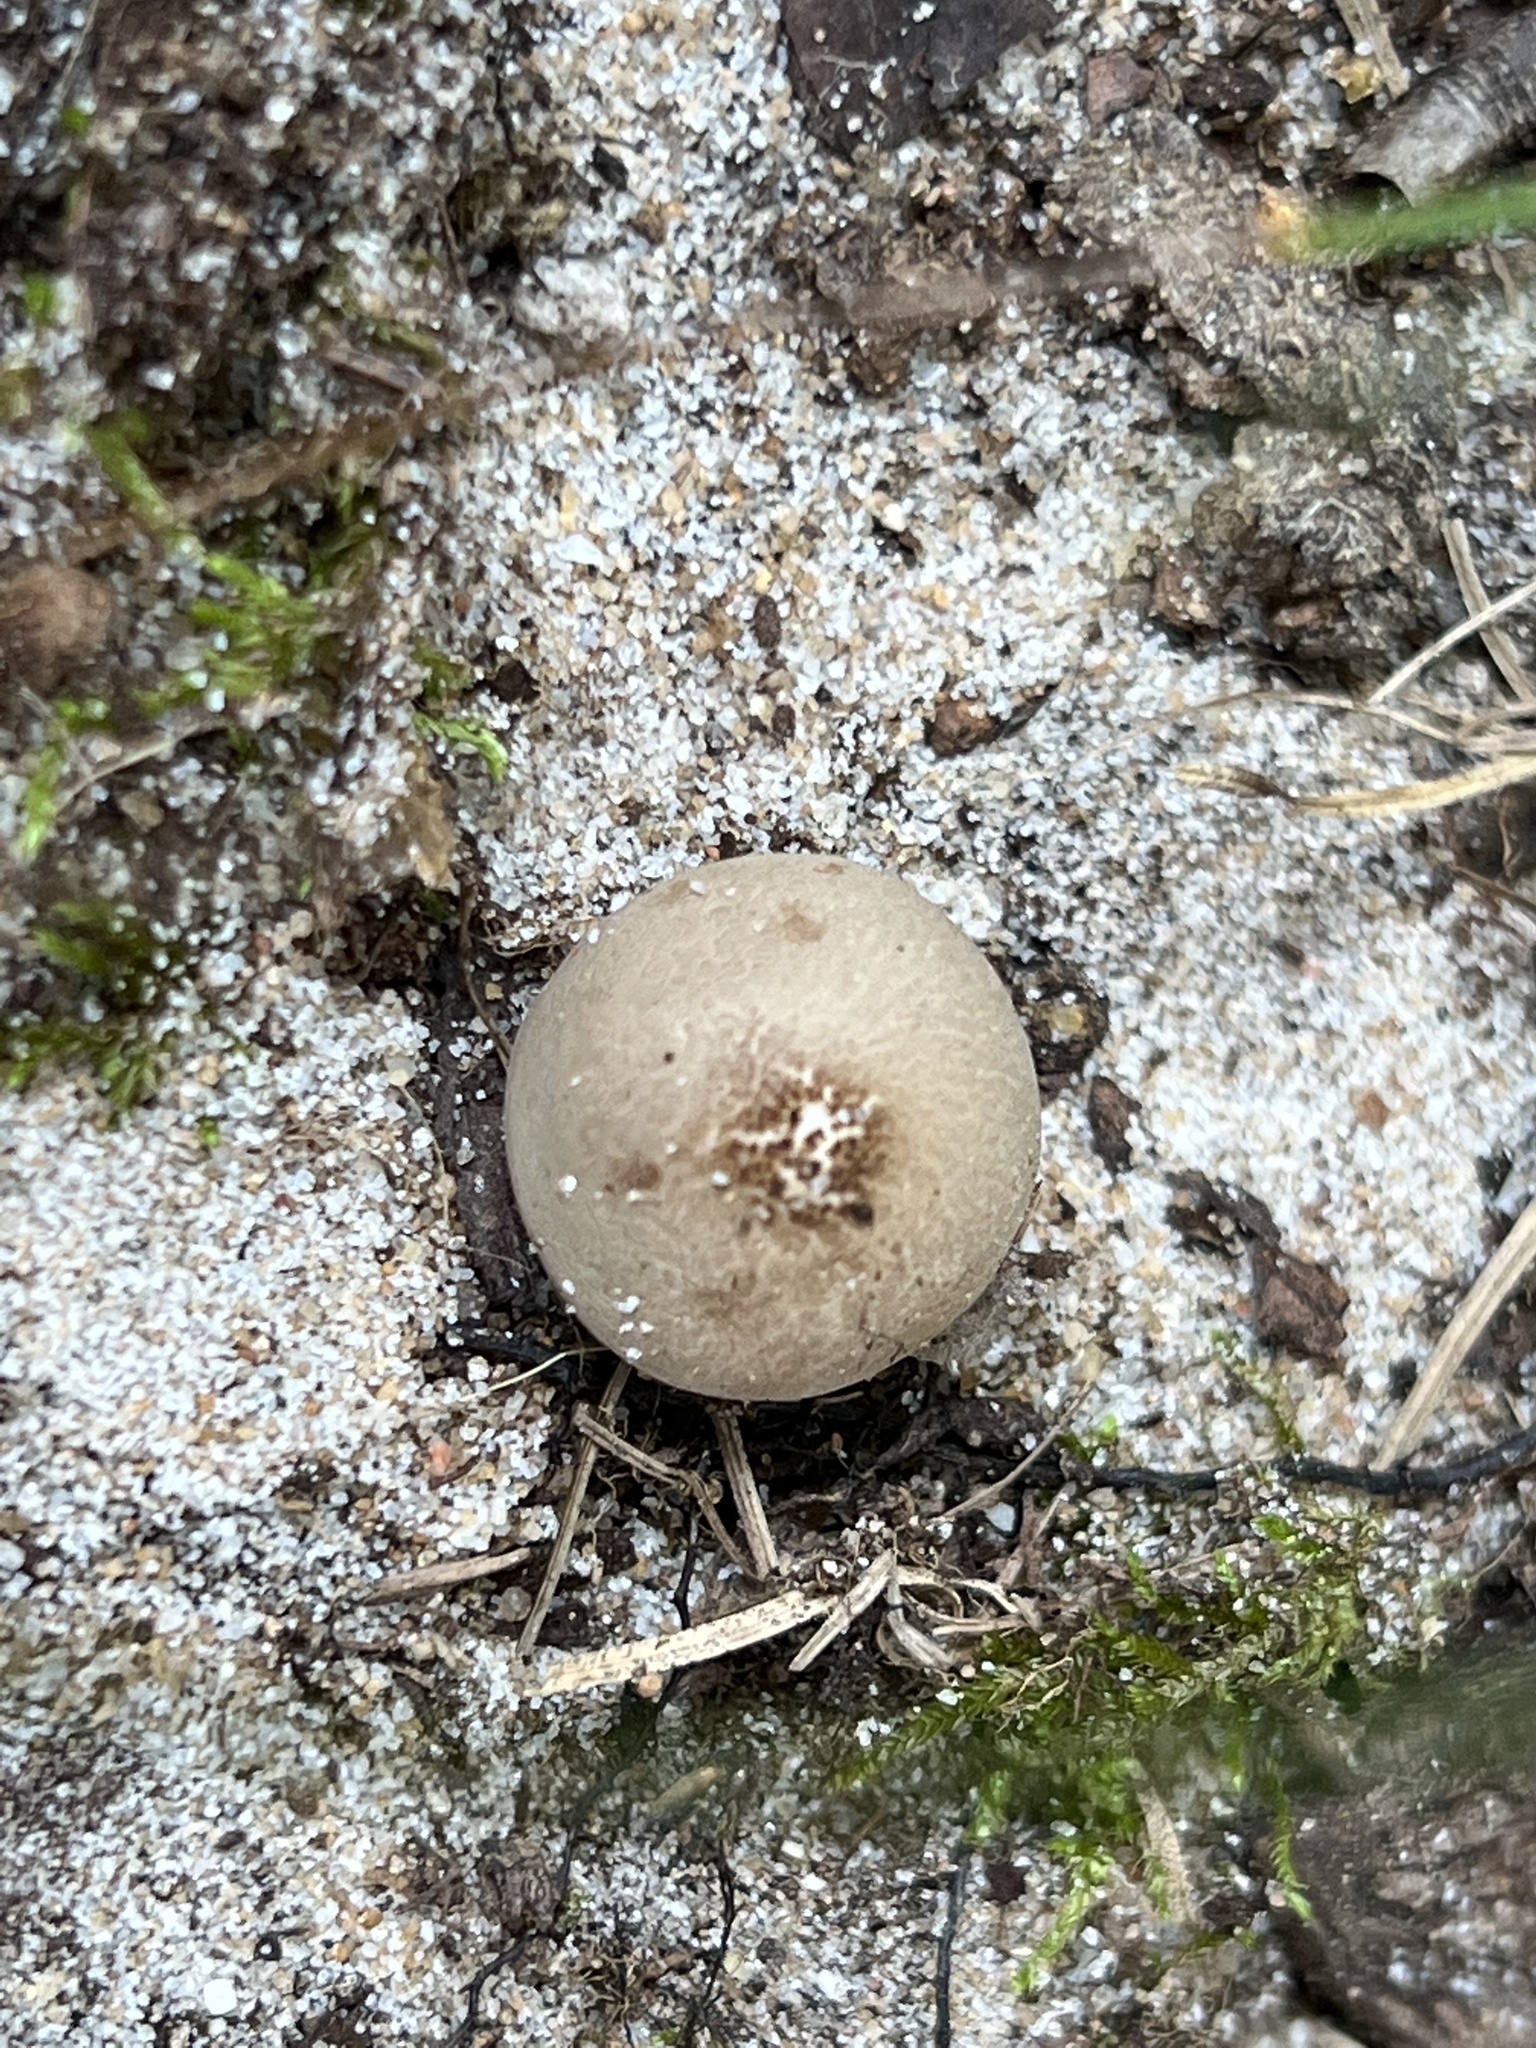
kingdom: Fungi
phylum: Basidiomycota
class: Agaricomycetes
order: Agaricales
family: Lycoperdaceae
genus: Apioperdon
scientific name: Apioperdon pyriforme
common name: Pear-shaped puffball
